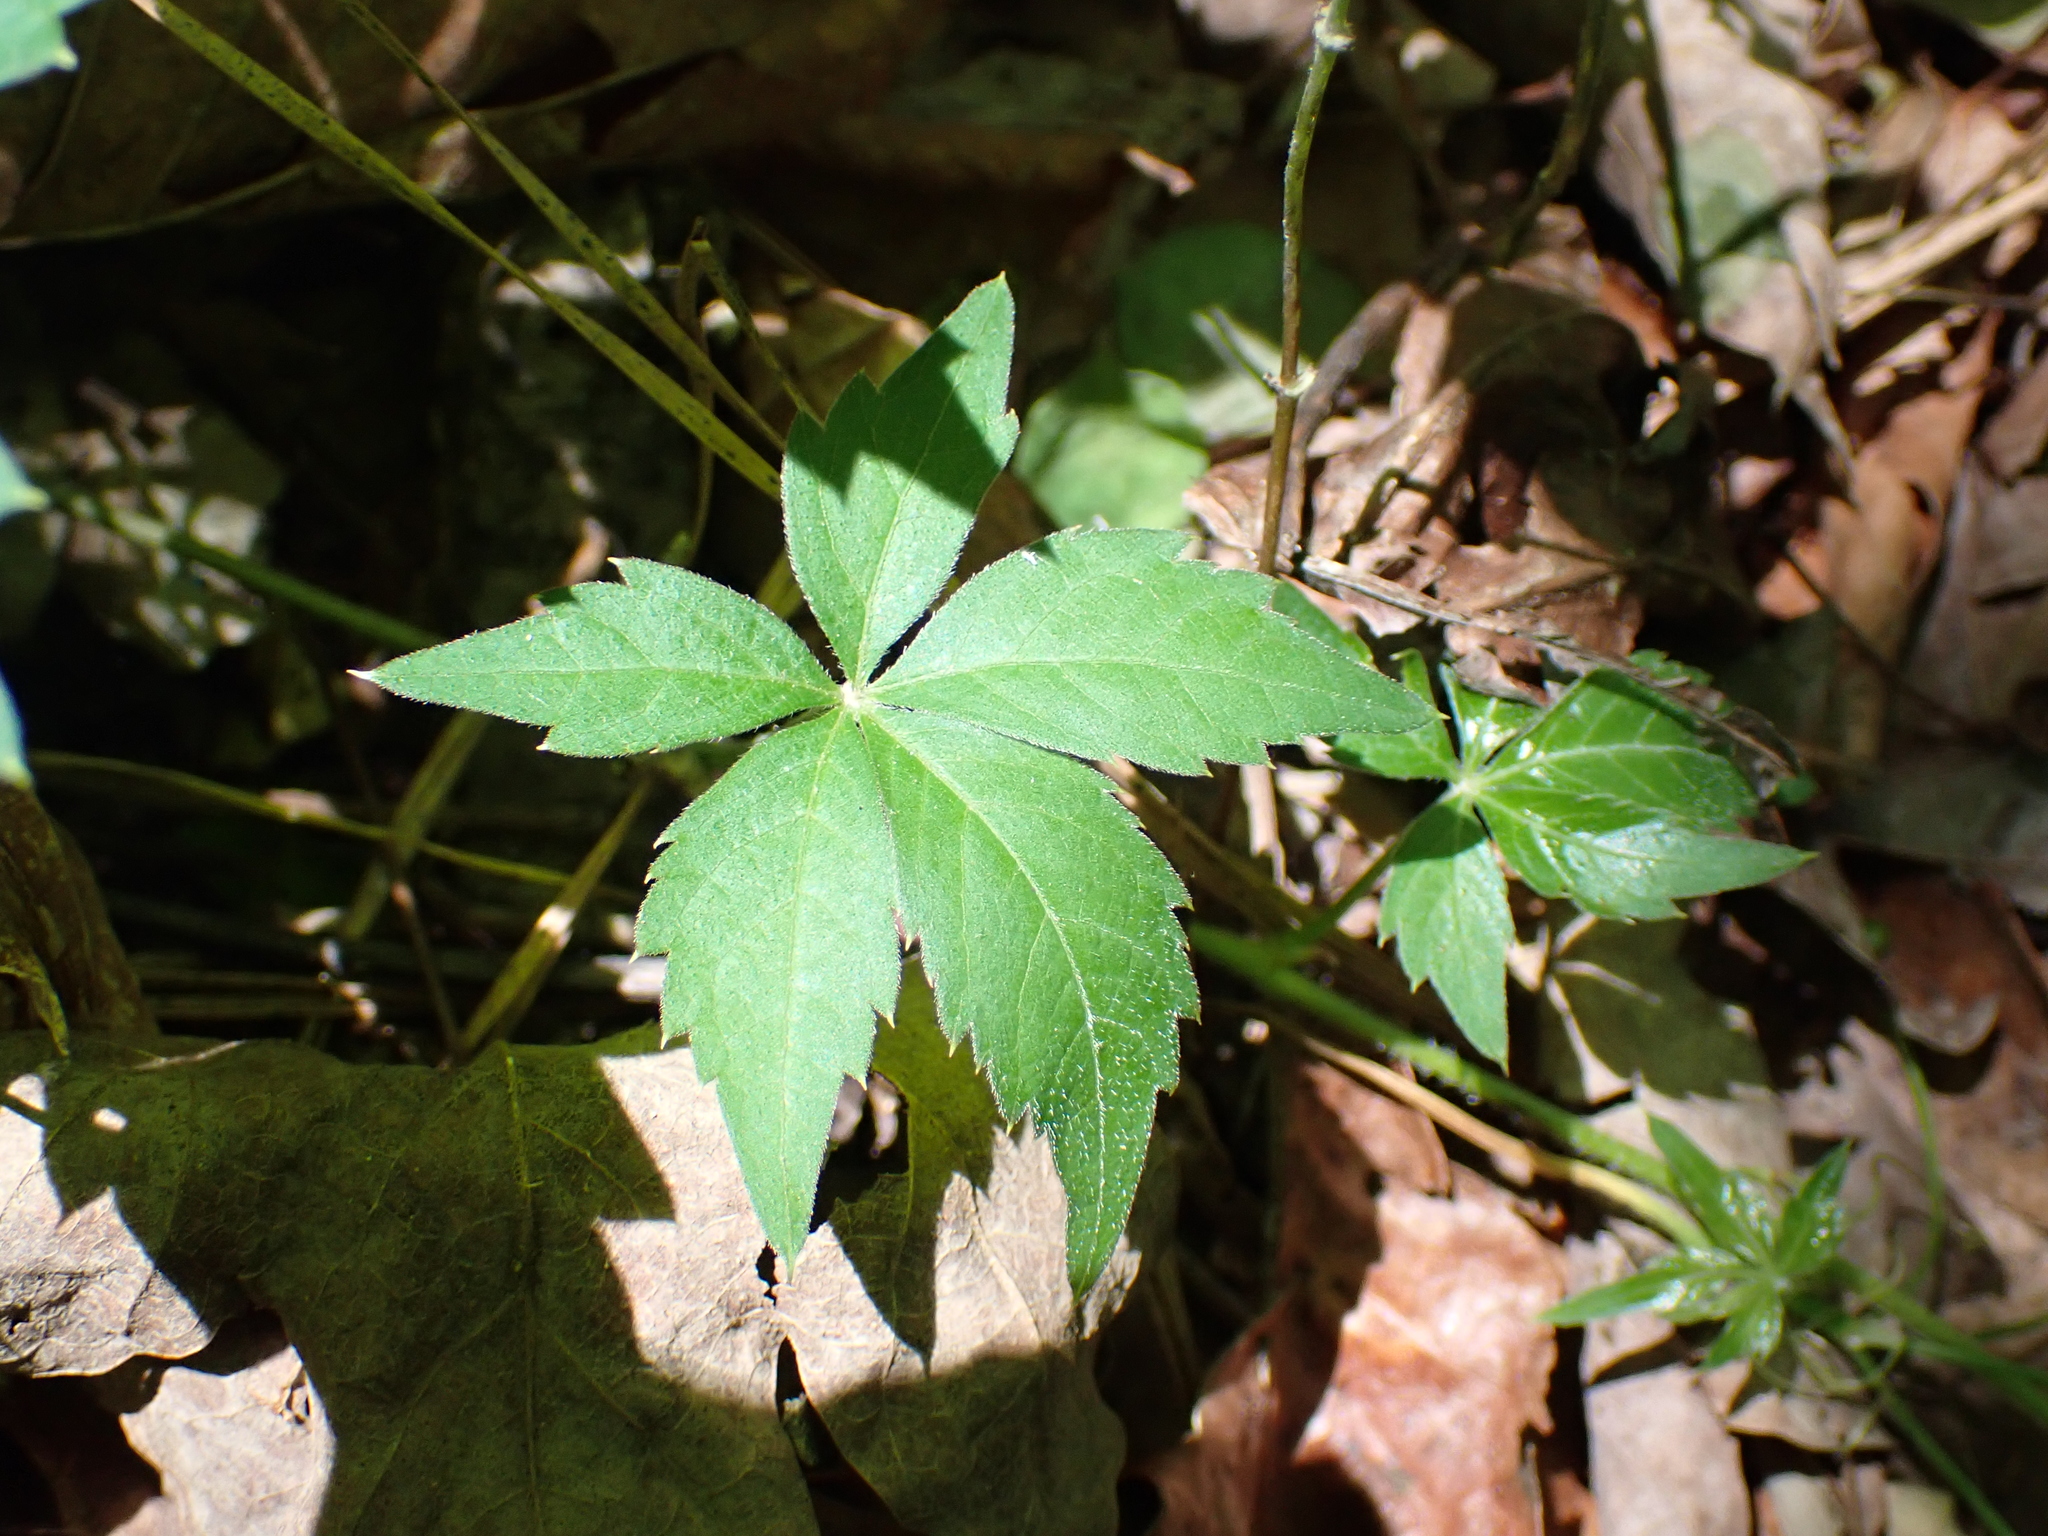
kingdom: Plantae
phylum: Tracheophyta
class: Magnoliopsida
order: Vitales
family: Vitaceae
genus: Parthenocissus
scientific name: Parthenocissus quinquefolia
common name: Virginia-creeper
